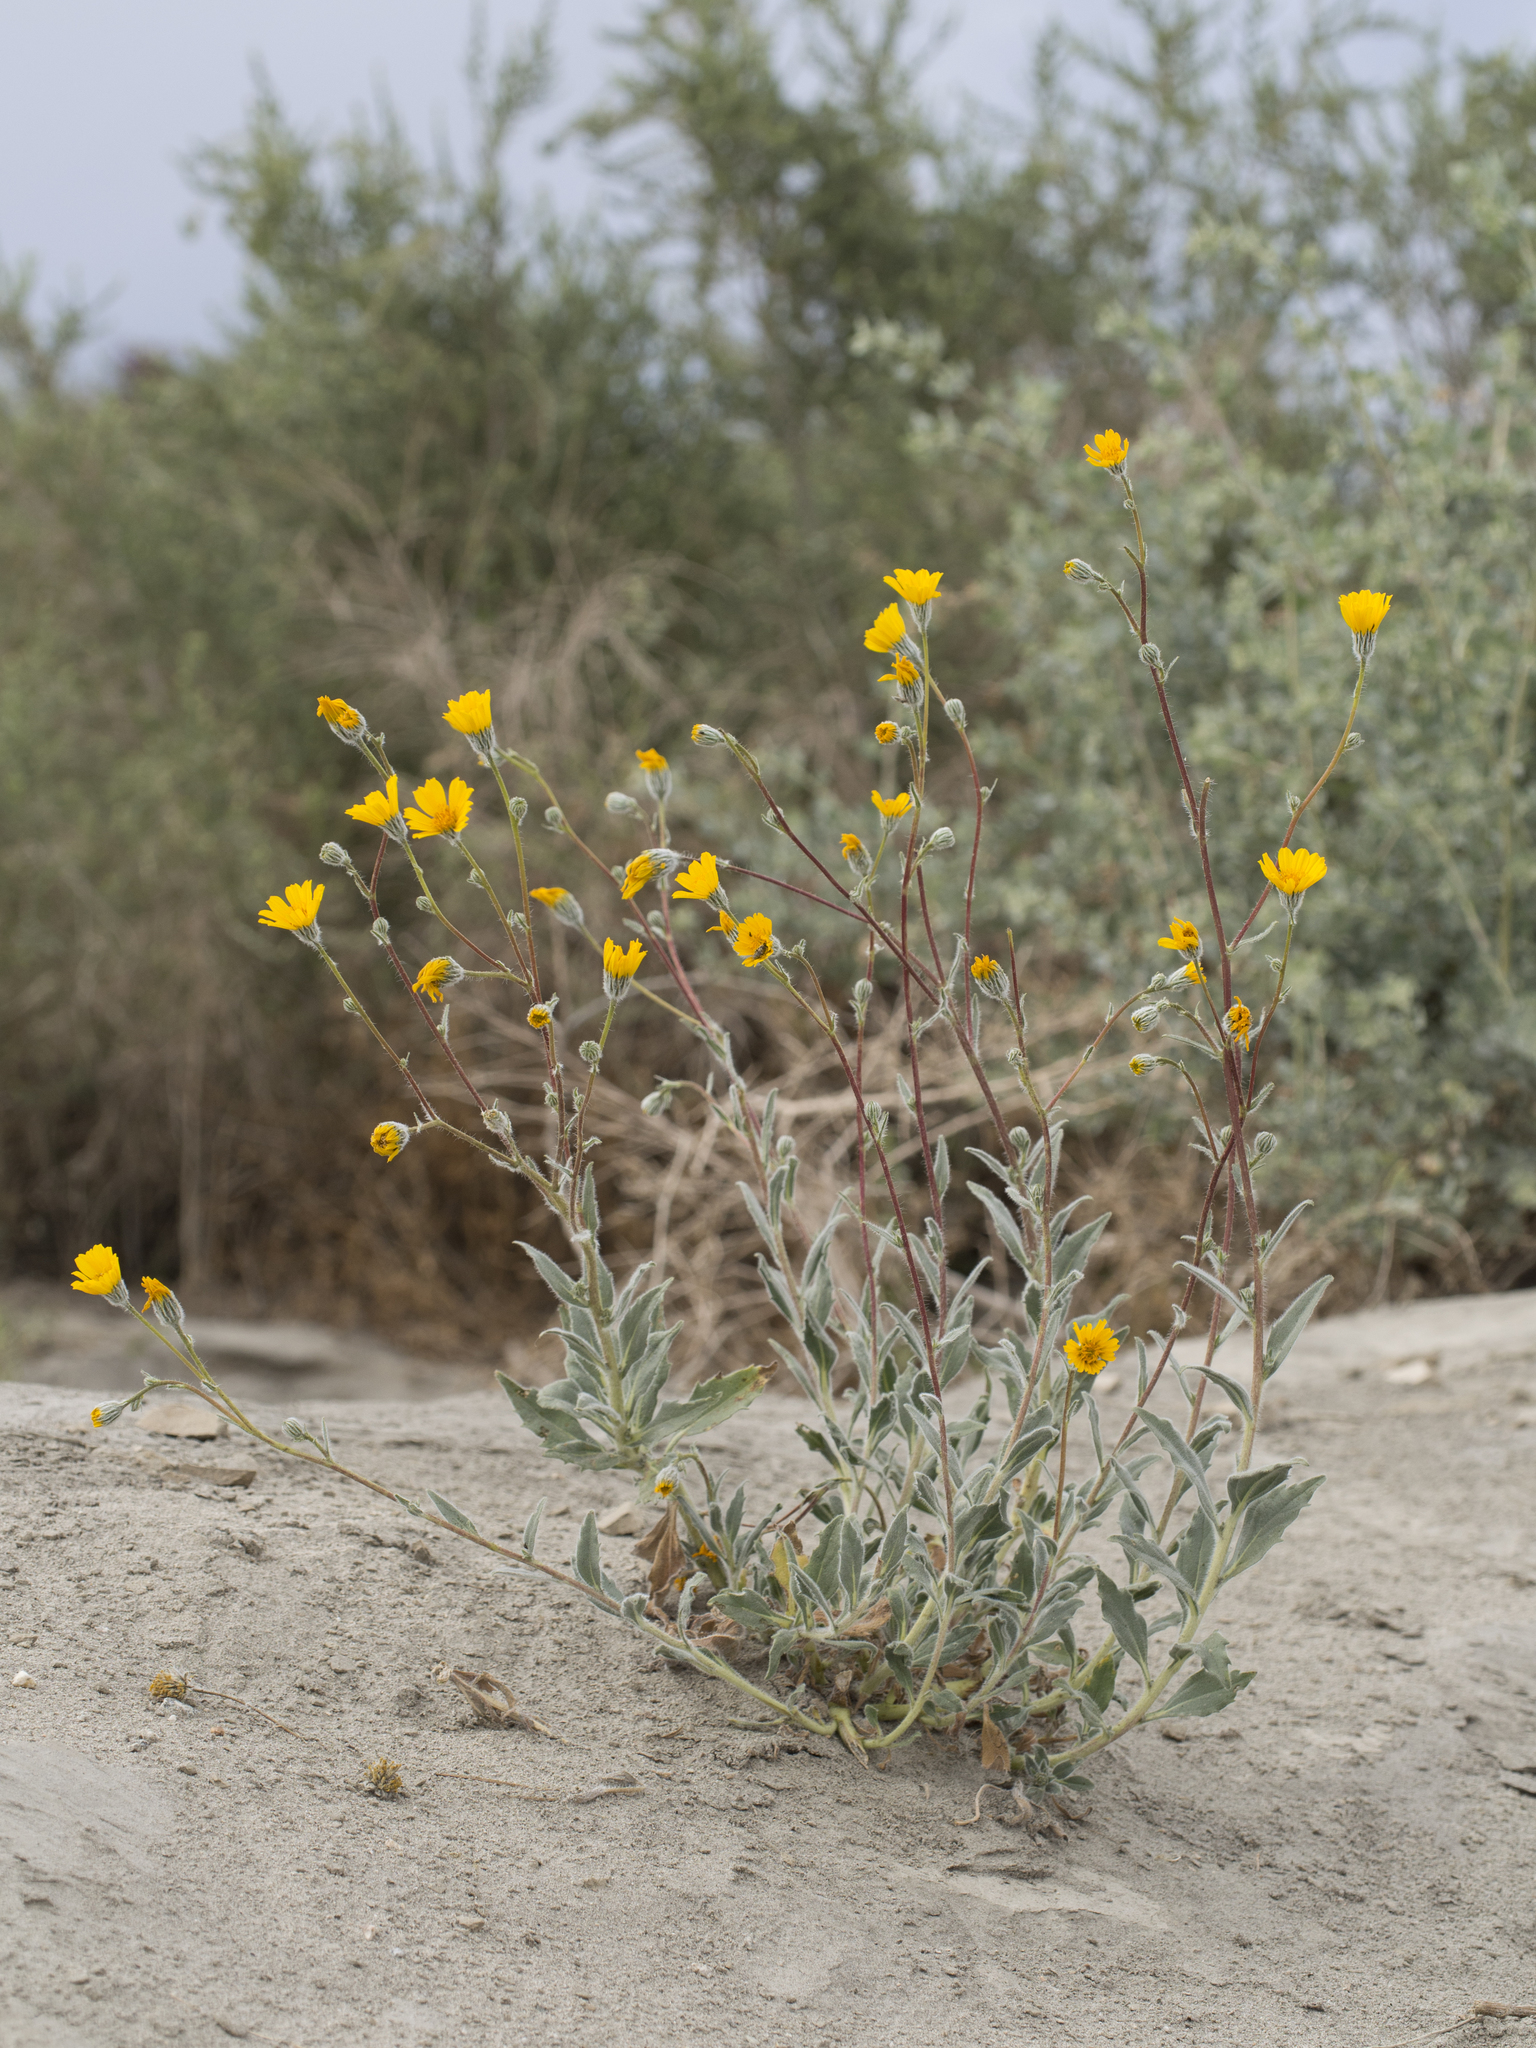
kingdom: Plantae
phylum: Tracheophyta
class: Magnoliopsida
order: Asterales
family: Asteraceae
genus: Geraea
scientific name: Geraea canescens
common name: Desert-gold
